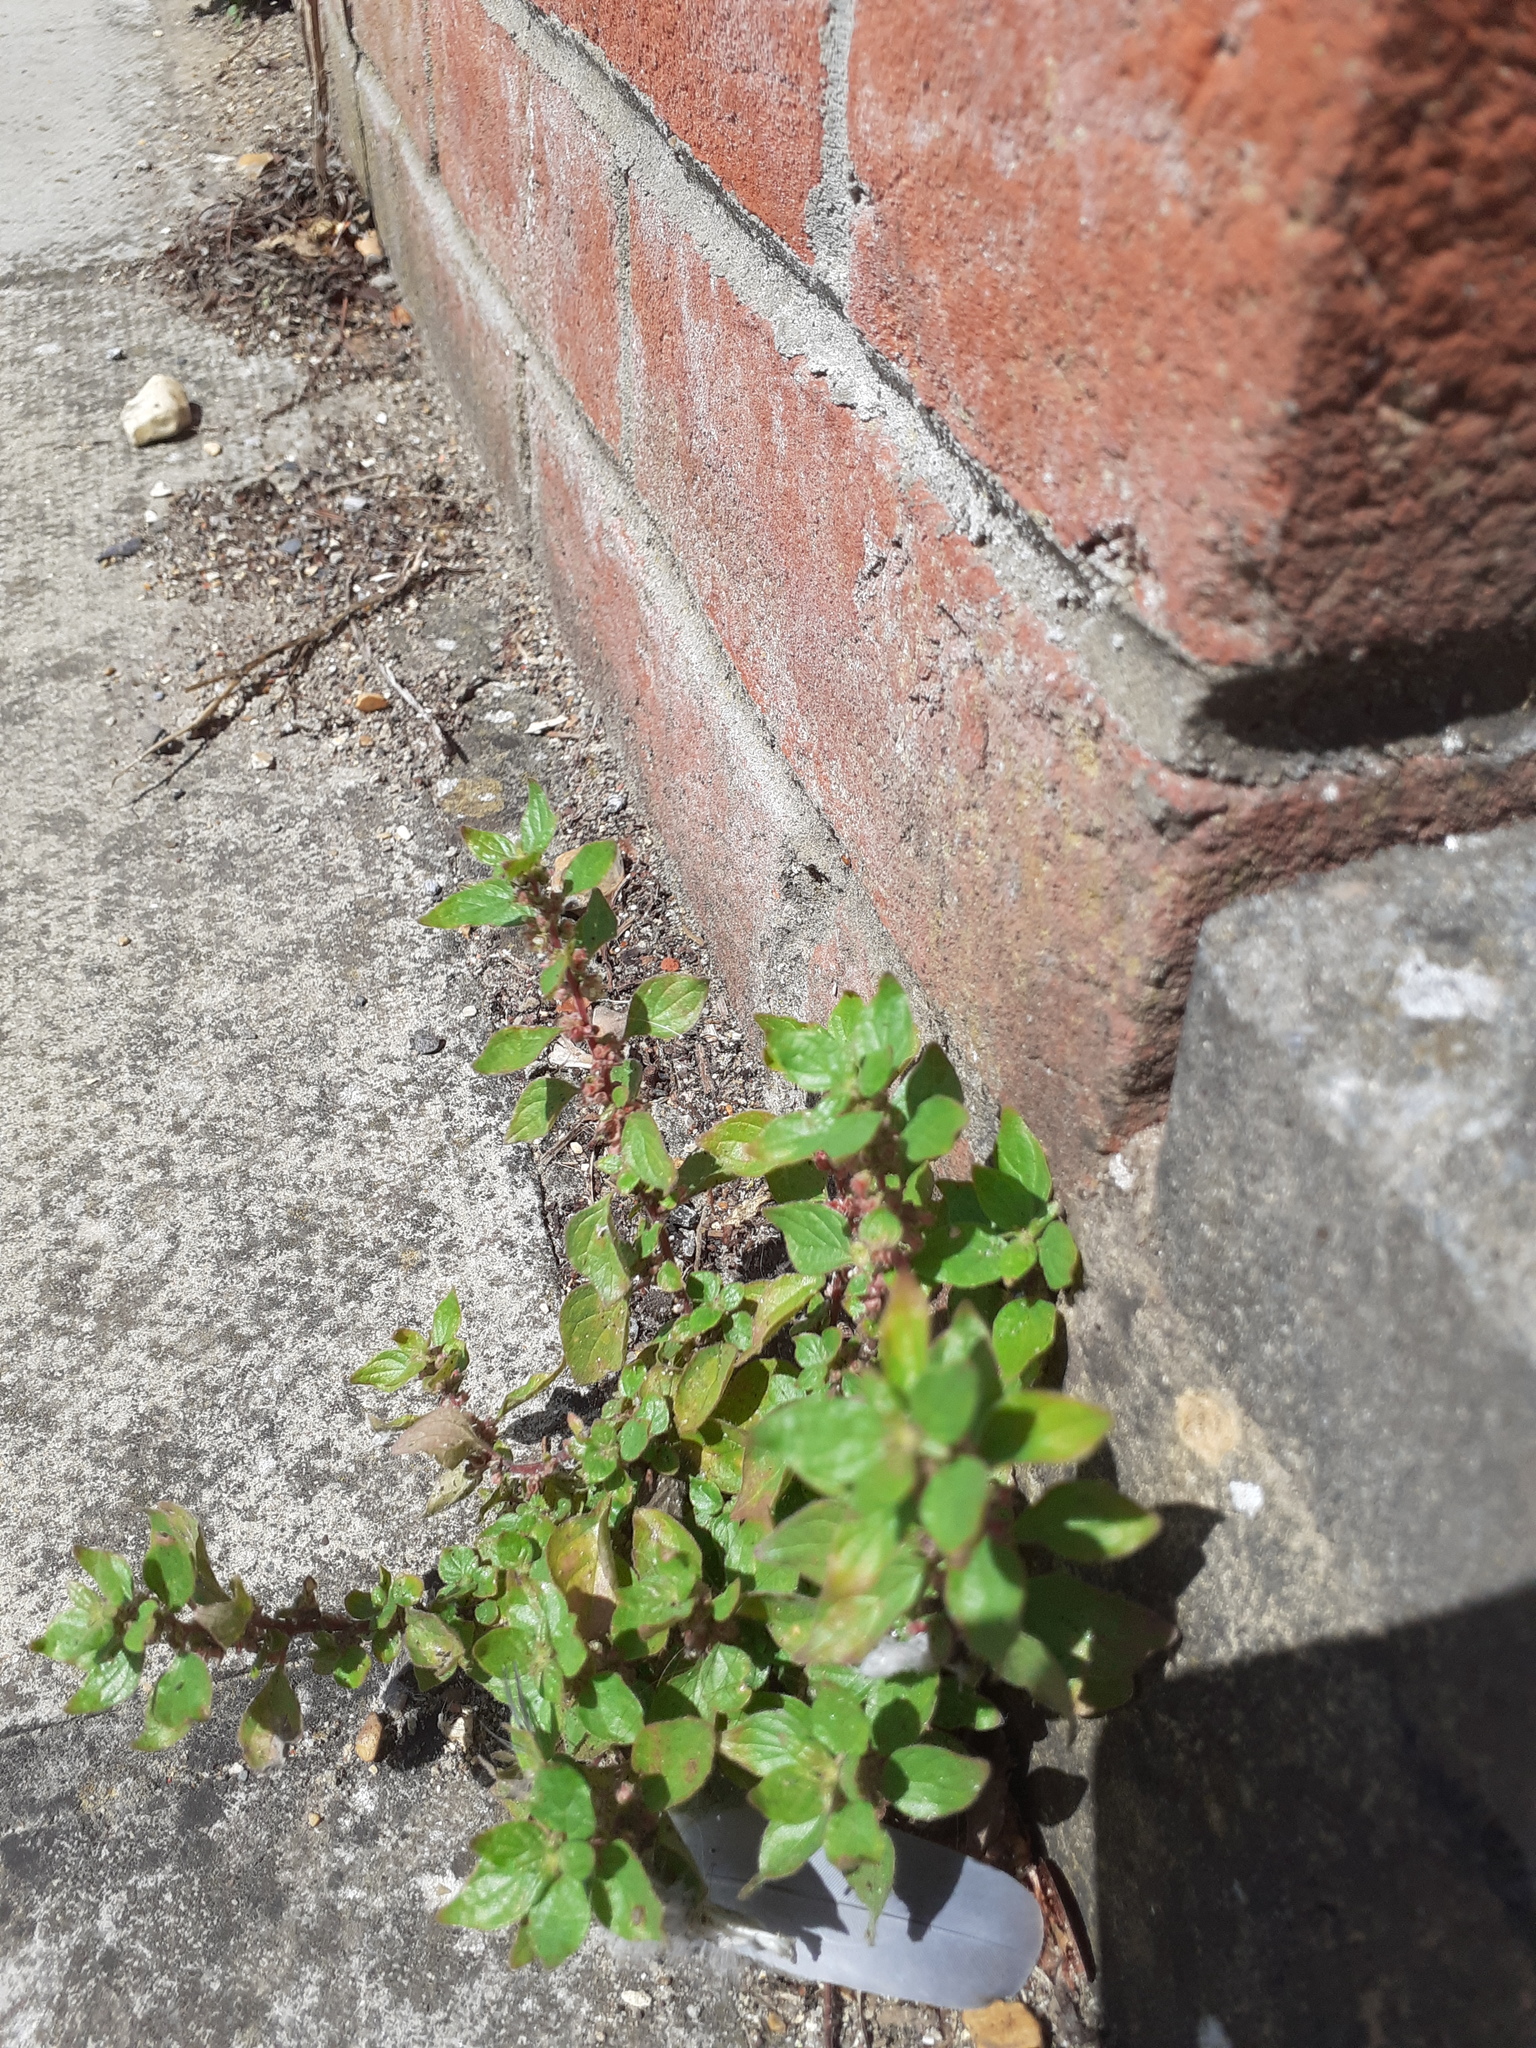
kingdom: Plantae
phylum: Tracheophyta
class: Magnoliopsida
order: Rosales
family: Urticaceae
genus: Parietaria
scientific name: Parietaria judaica
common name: Pellitory-of-the-wall
